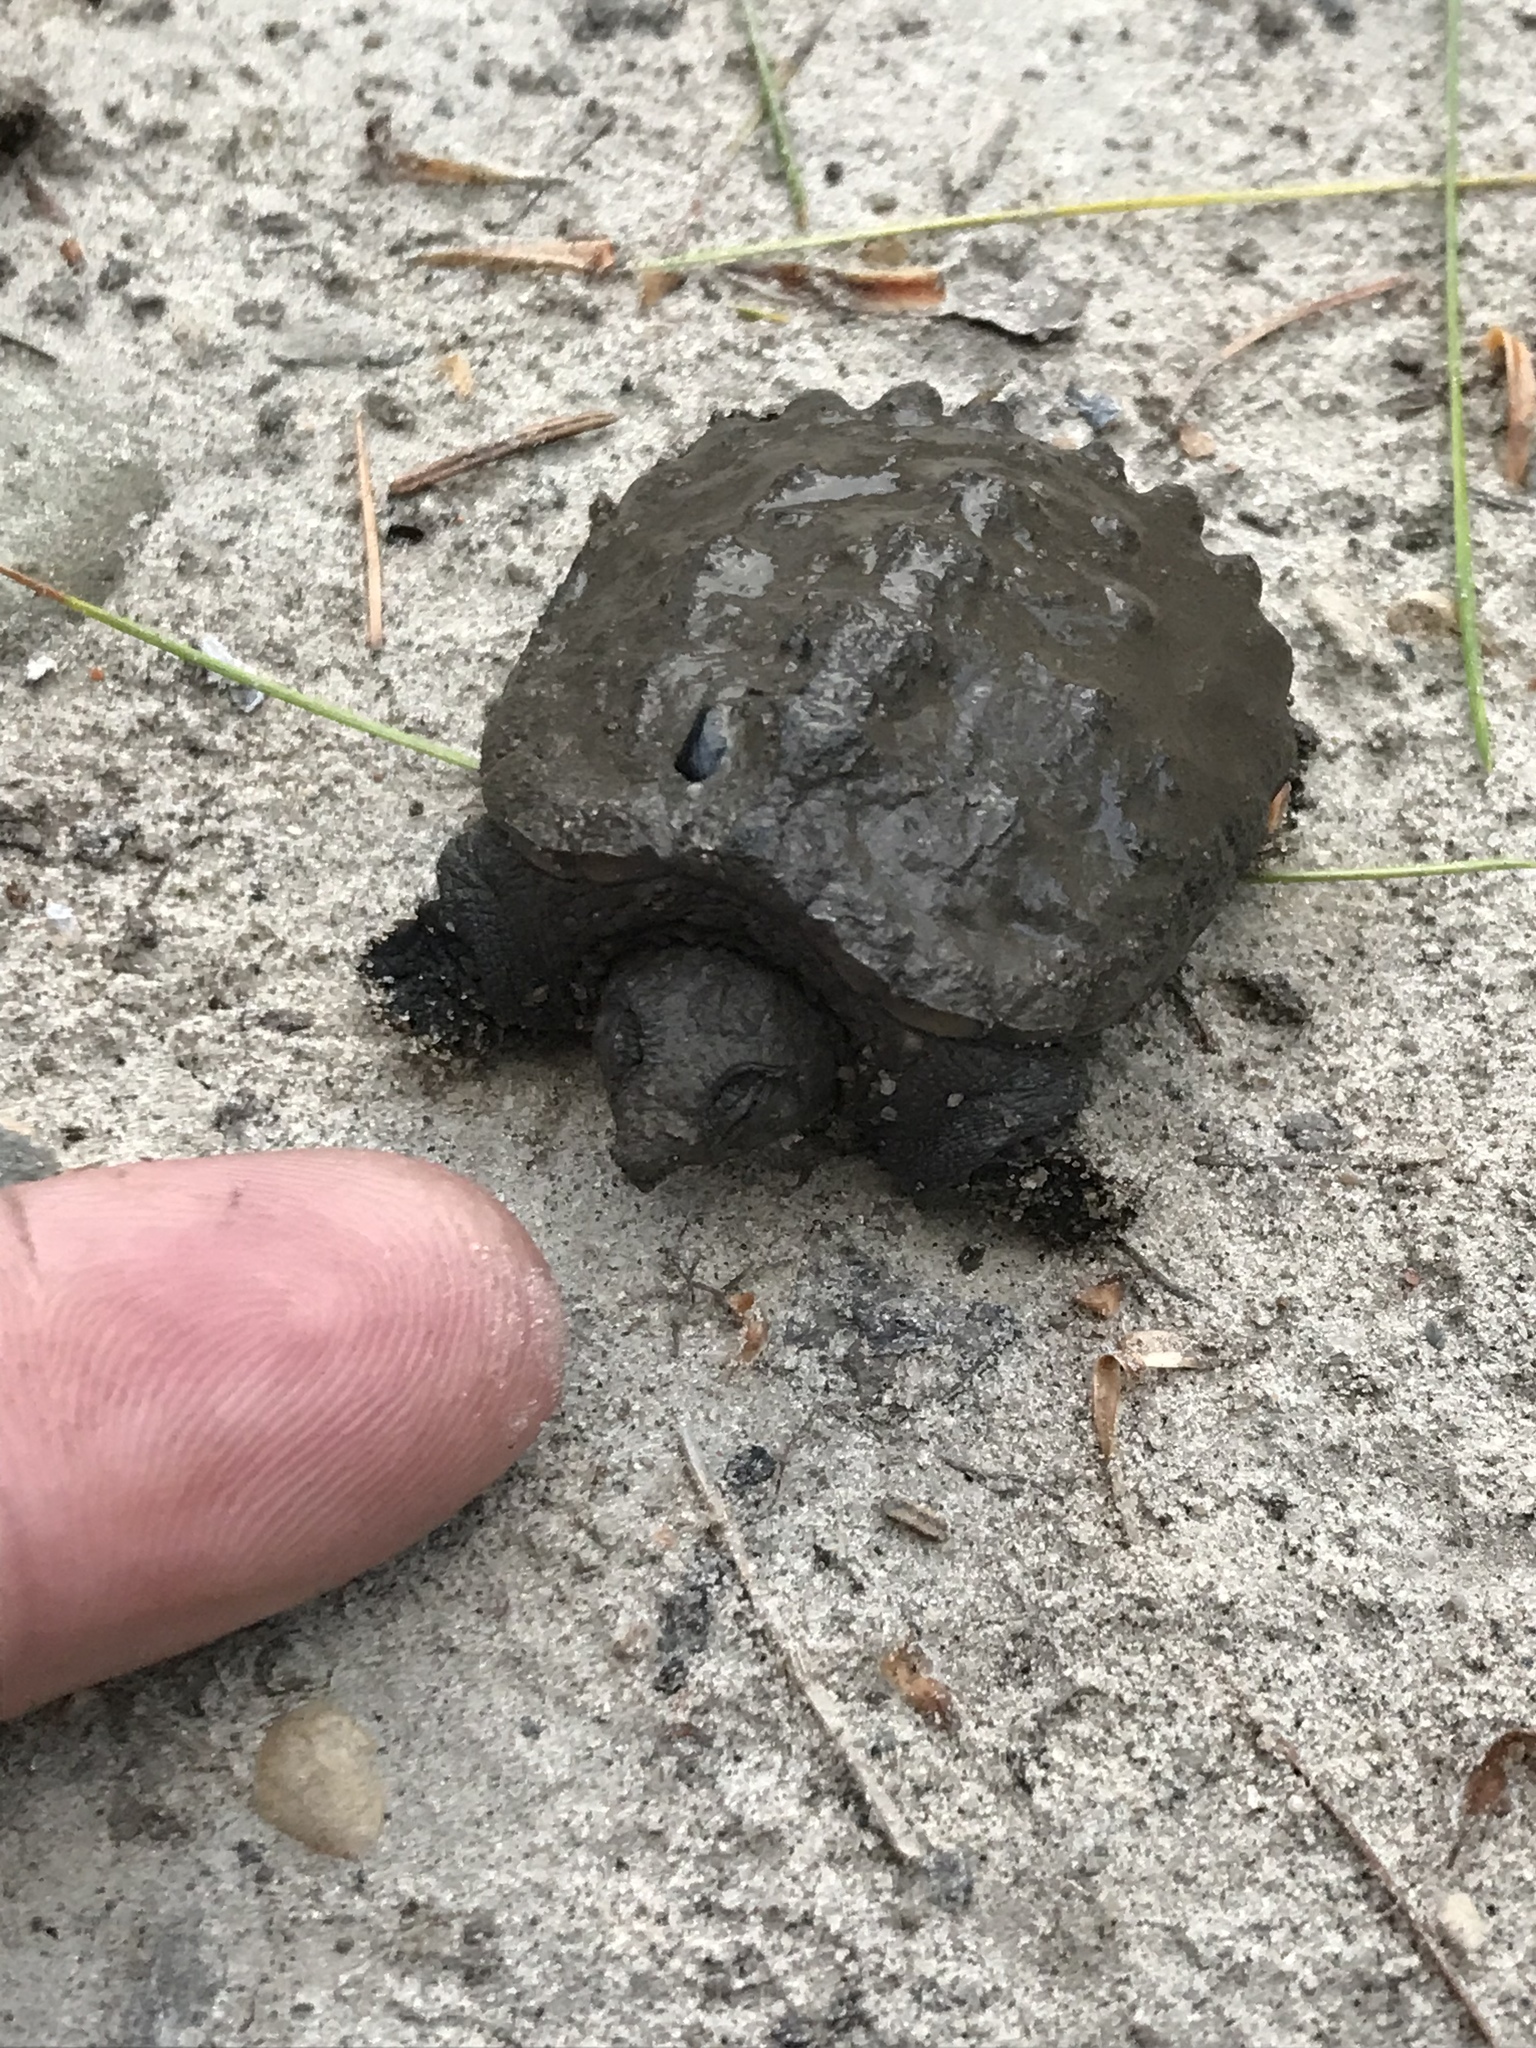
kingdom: Animalia
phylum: Chordata
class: Testudines
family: Chelydridae
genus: Chelydra
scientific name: Chelydra serpentina
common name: Common snapping turtle
